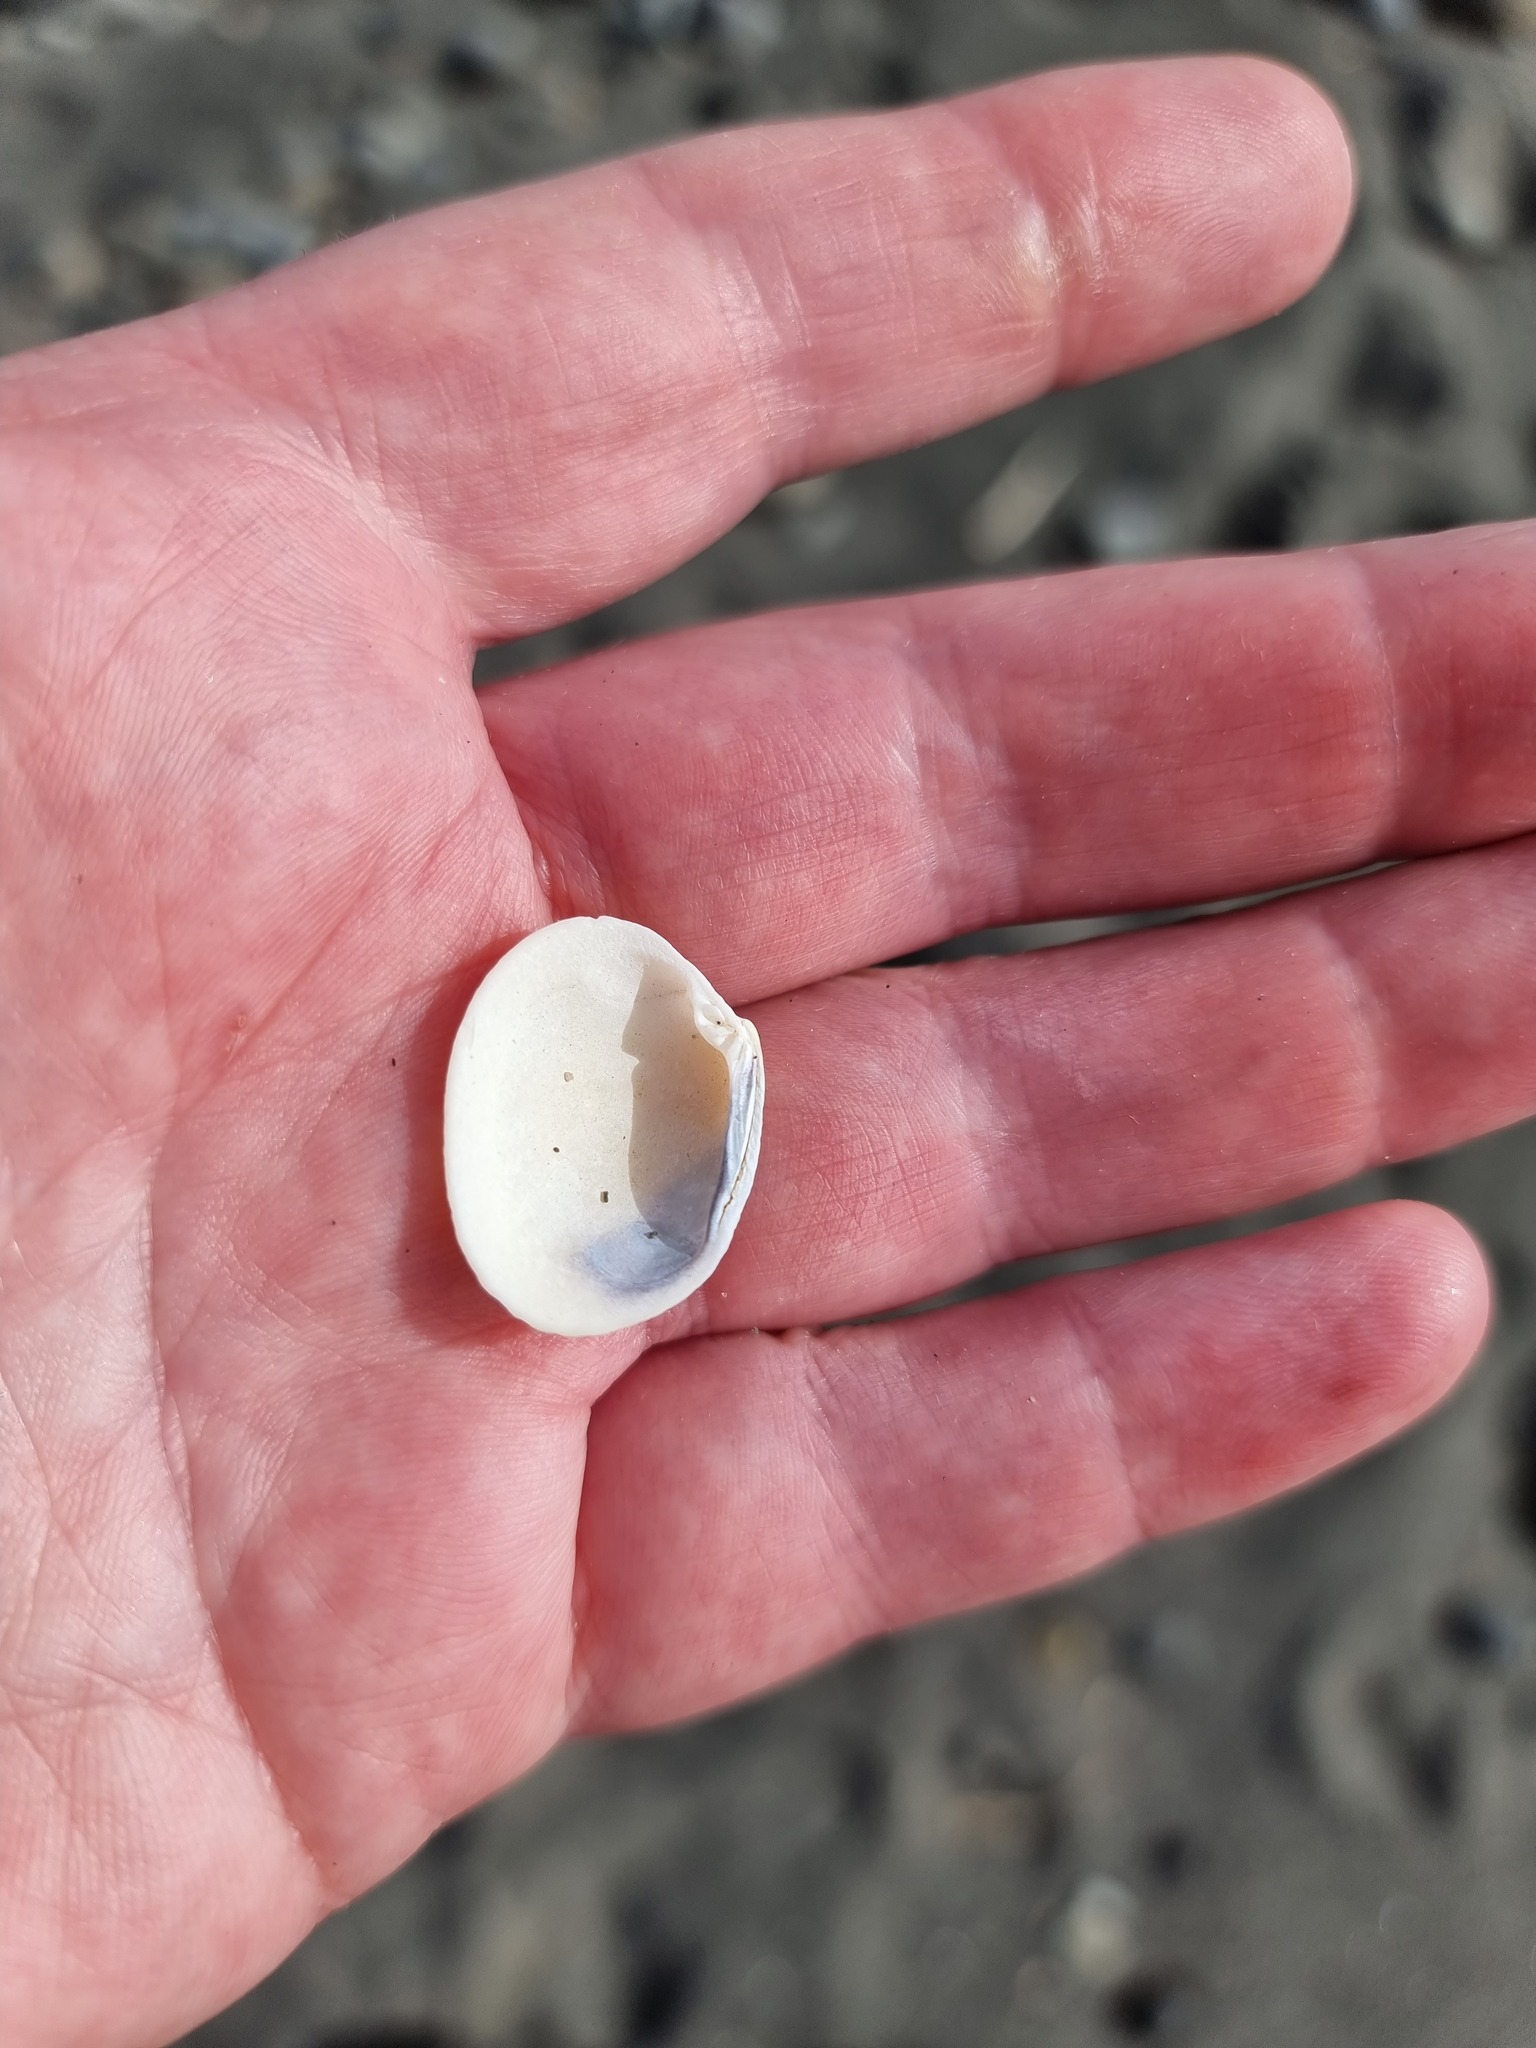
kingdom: Animalia
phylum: Mollusca
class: Bivalvia
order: Venerida
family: Veneridae
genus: Leukoma
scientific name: Leukoma crassicosta
